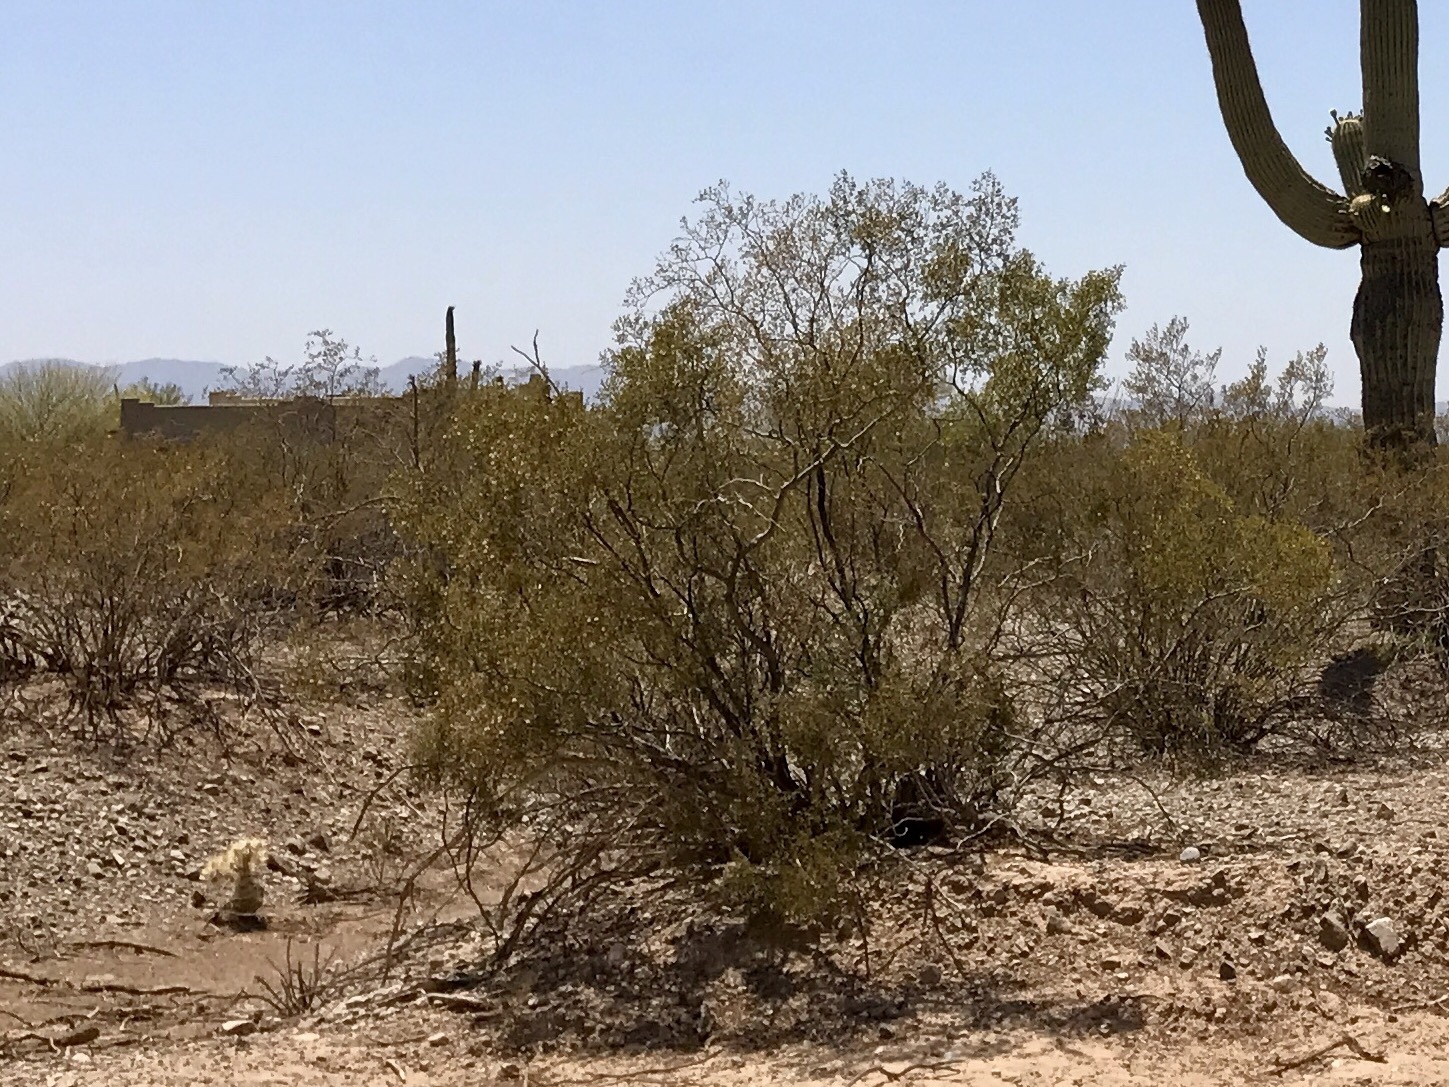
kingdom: Plantae
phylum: Tracheophyta
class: Magnoliopsida
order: Zygophyllales
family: Zygophyllaceae
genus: Larrea
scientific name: Larrea tridentata
